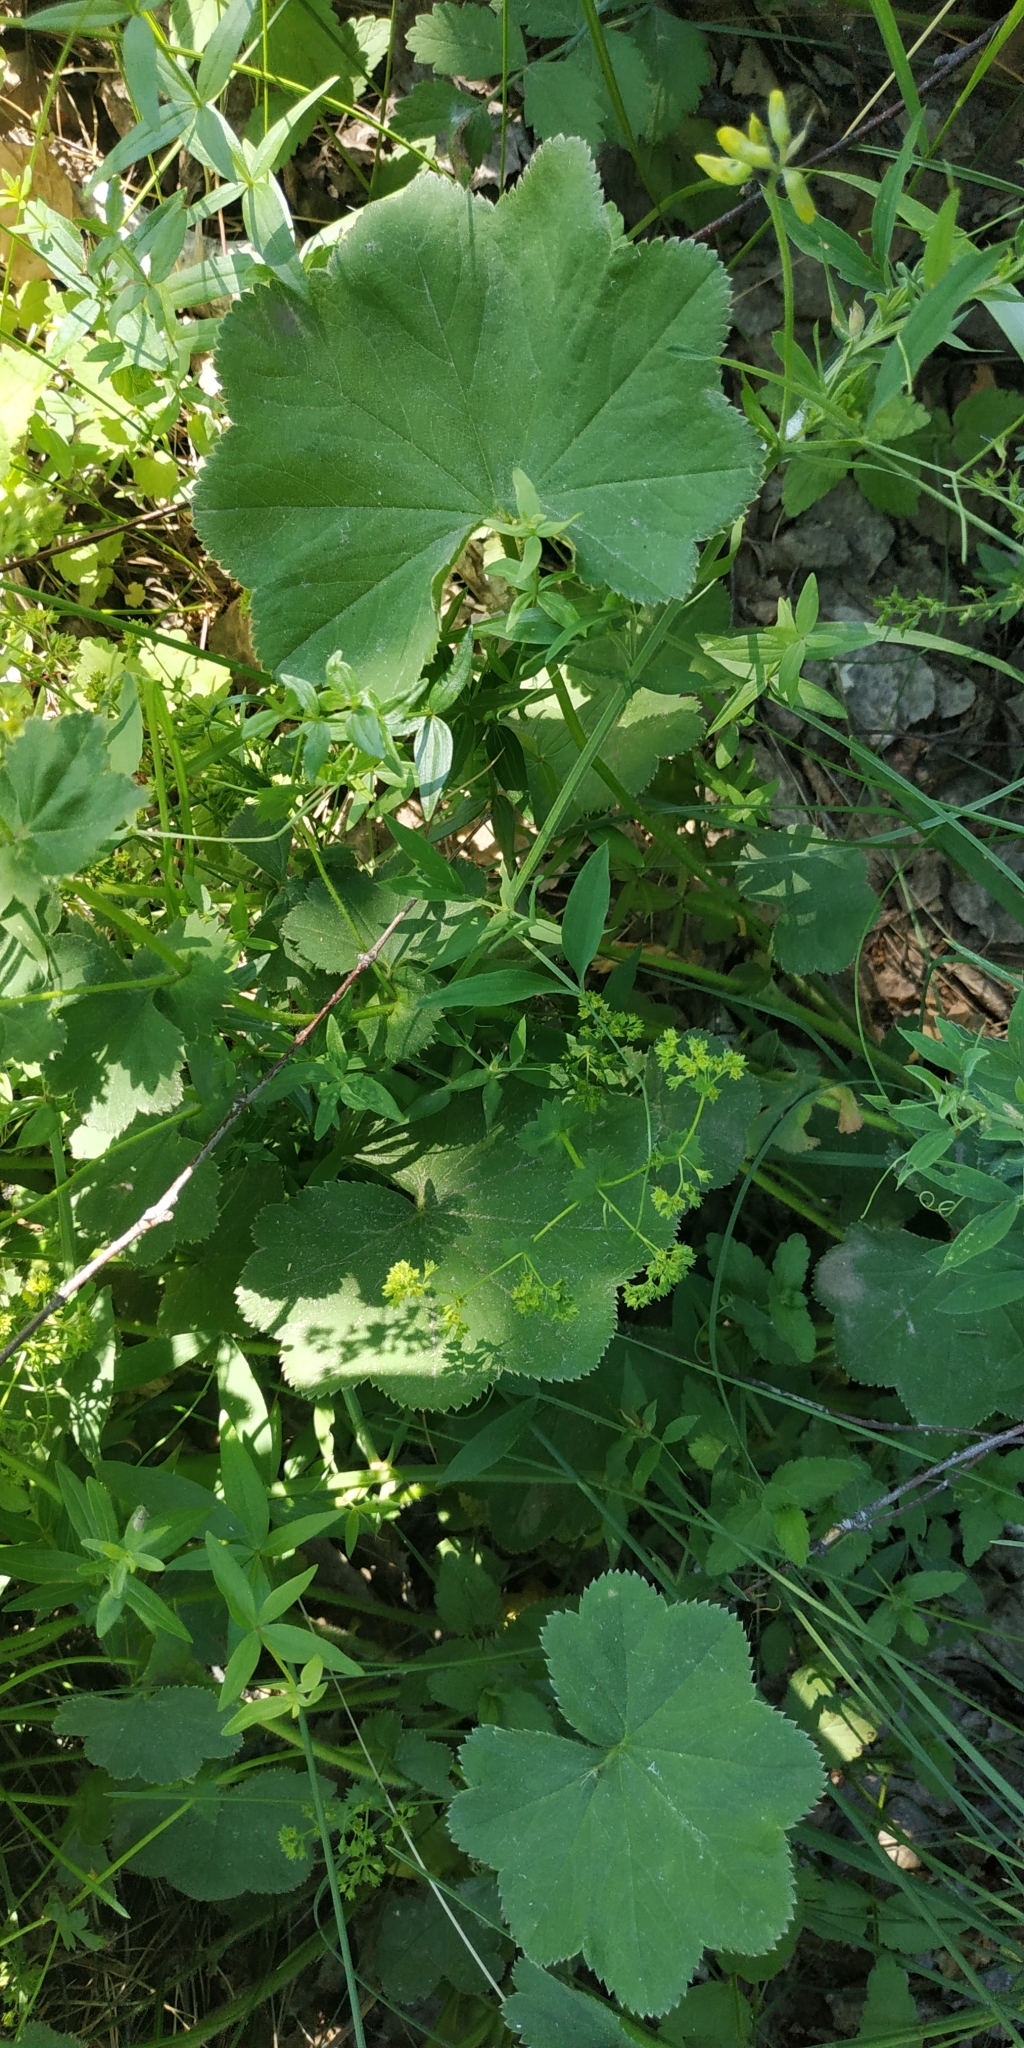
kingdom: Plantae
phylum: Tracheophyta
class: Magnoliopsida
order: Rosales
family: Rosaceae
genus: Alchemilla
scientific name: Alchemilla lindbergiana
